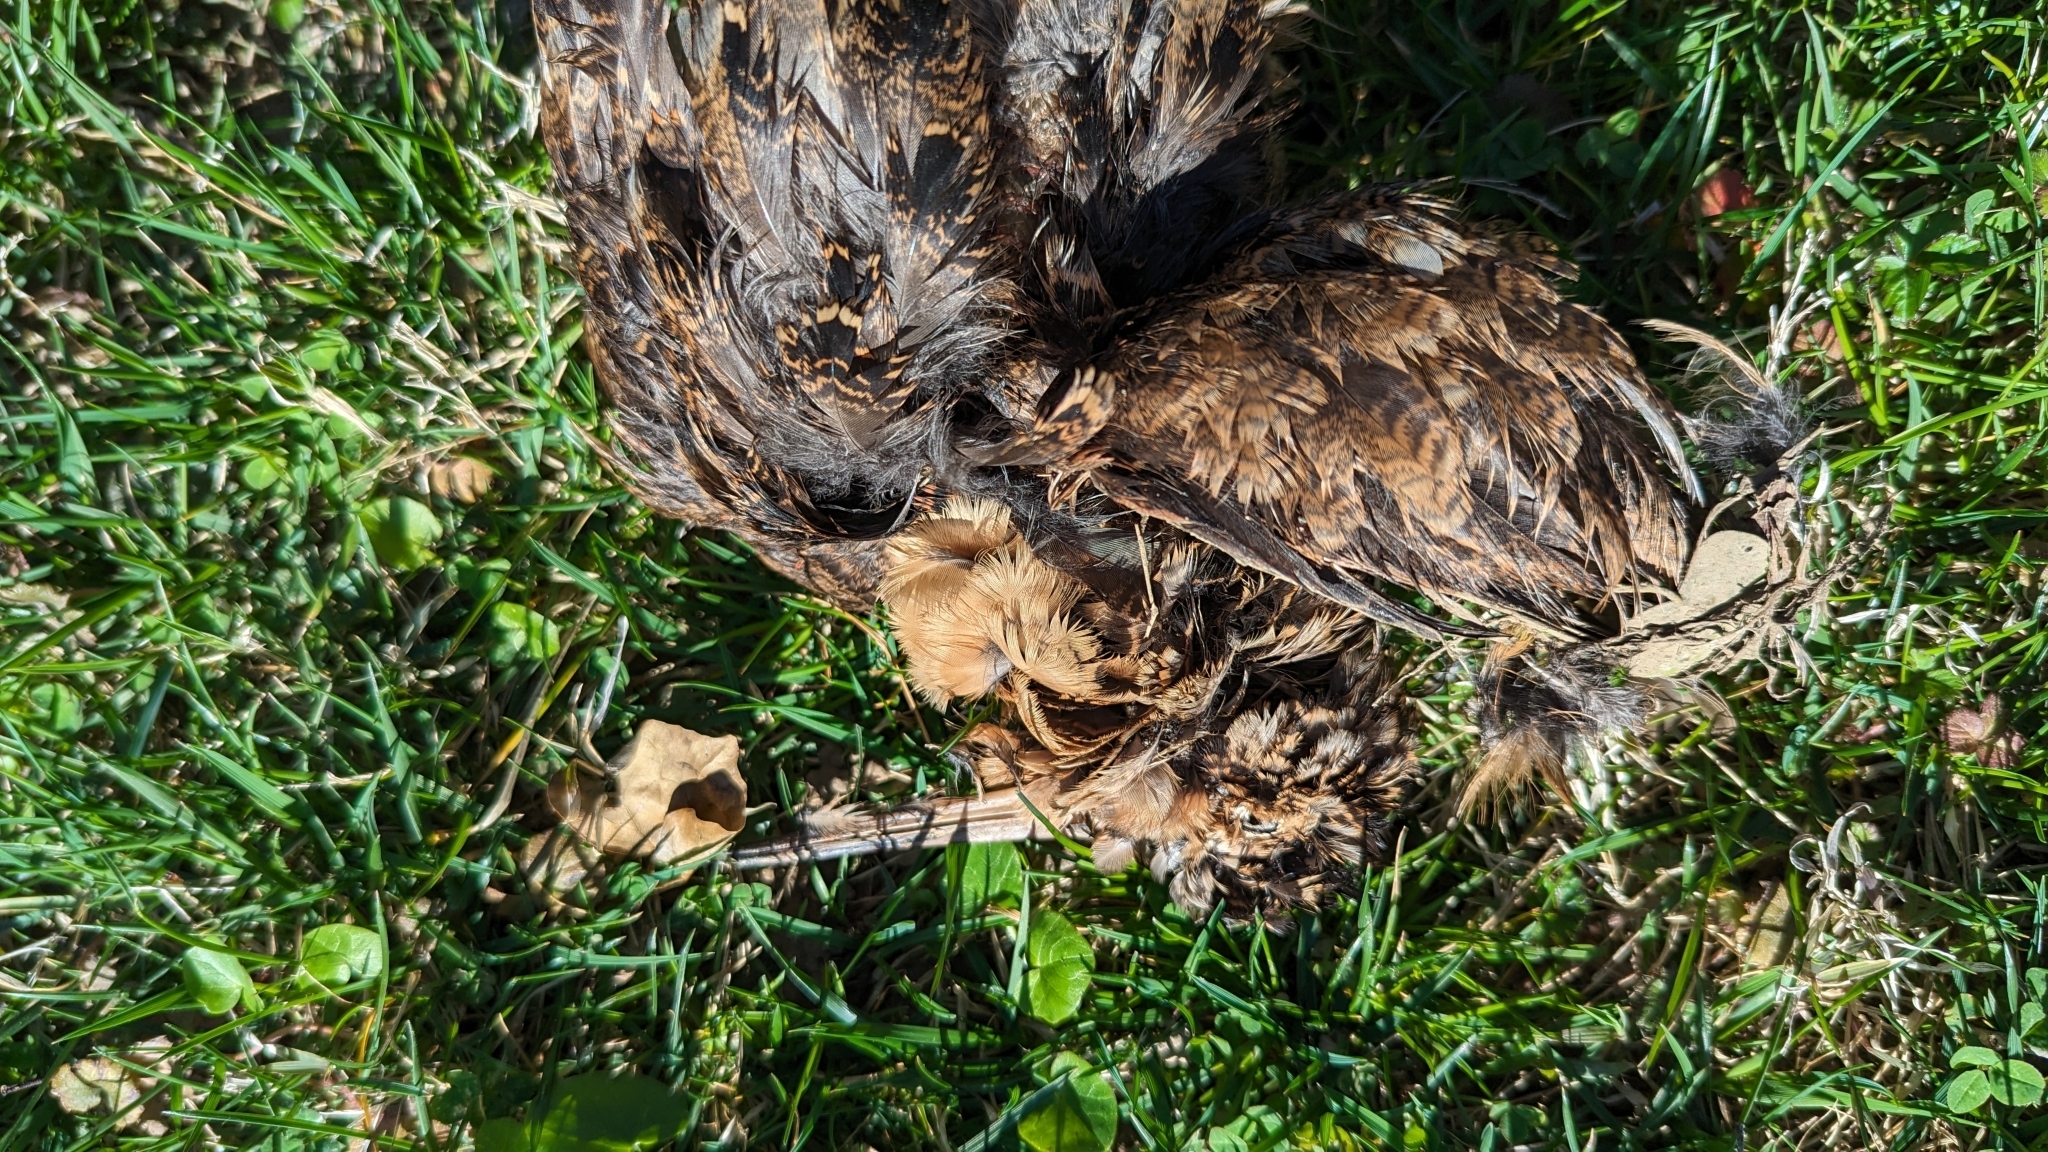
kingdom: Animalia
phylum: Chordata
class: Aves
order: Charadriiformes
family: Scolopacidae
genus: Scolopax
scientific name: Scolopax minor
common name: American woodcock
